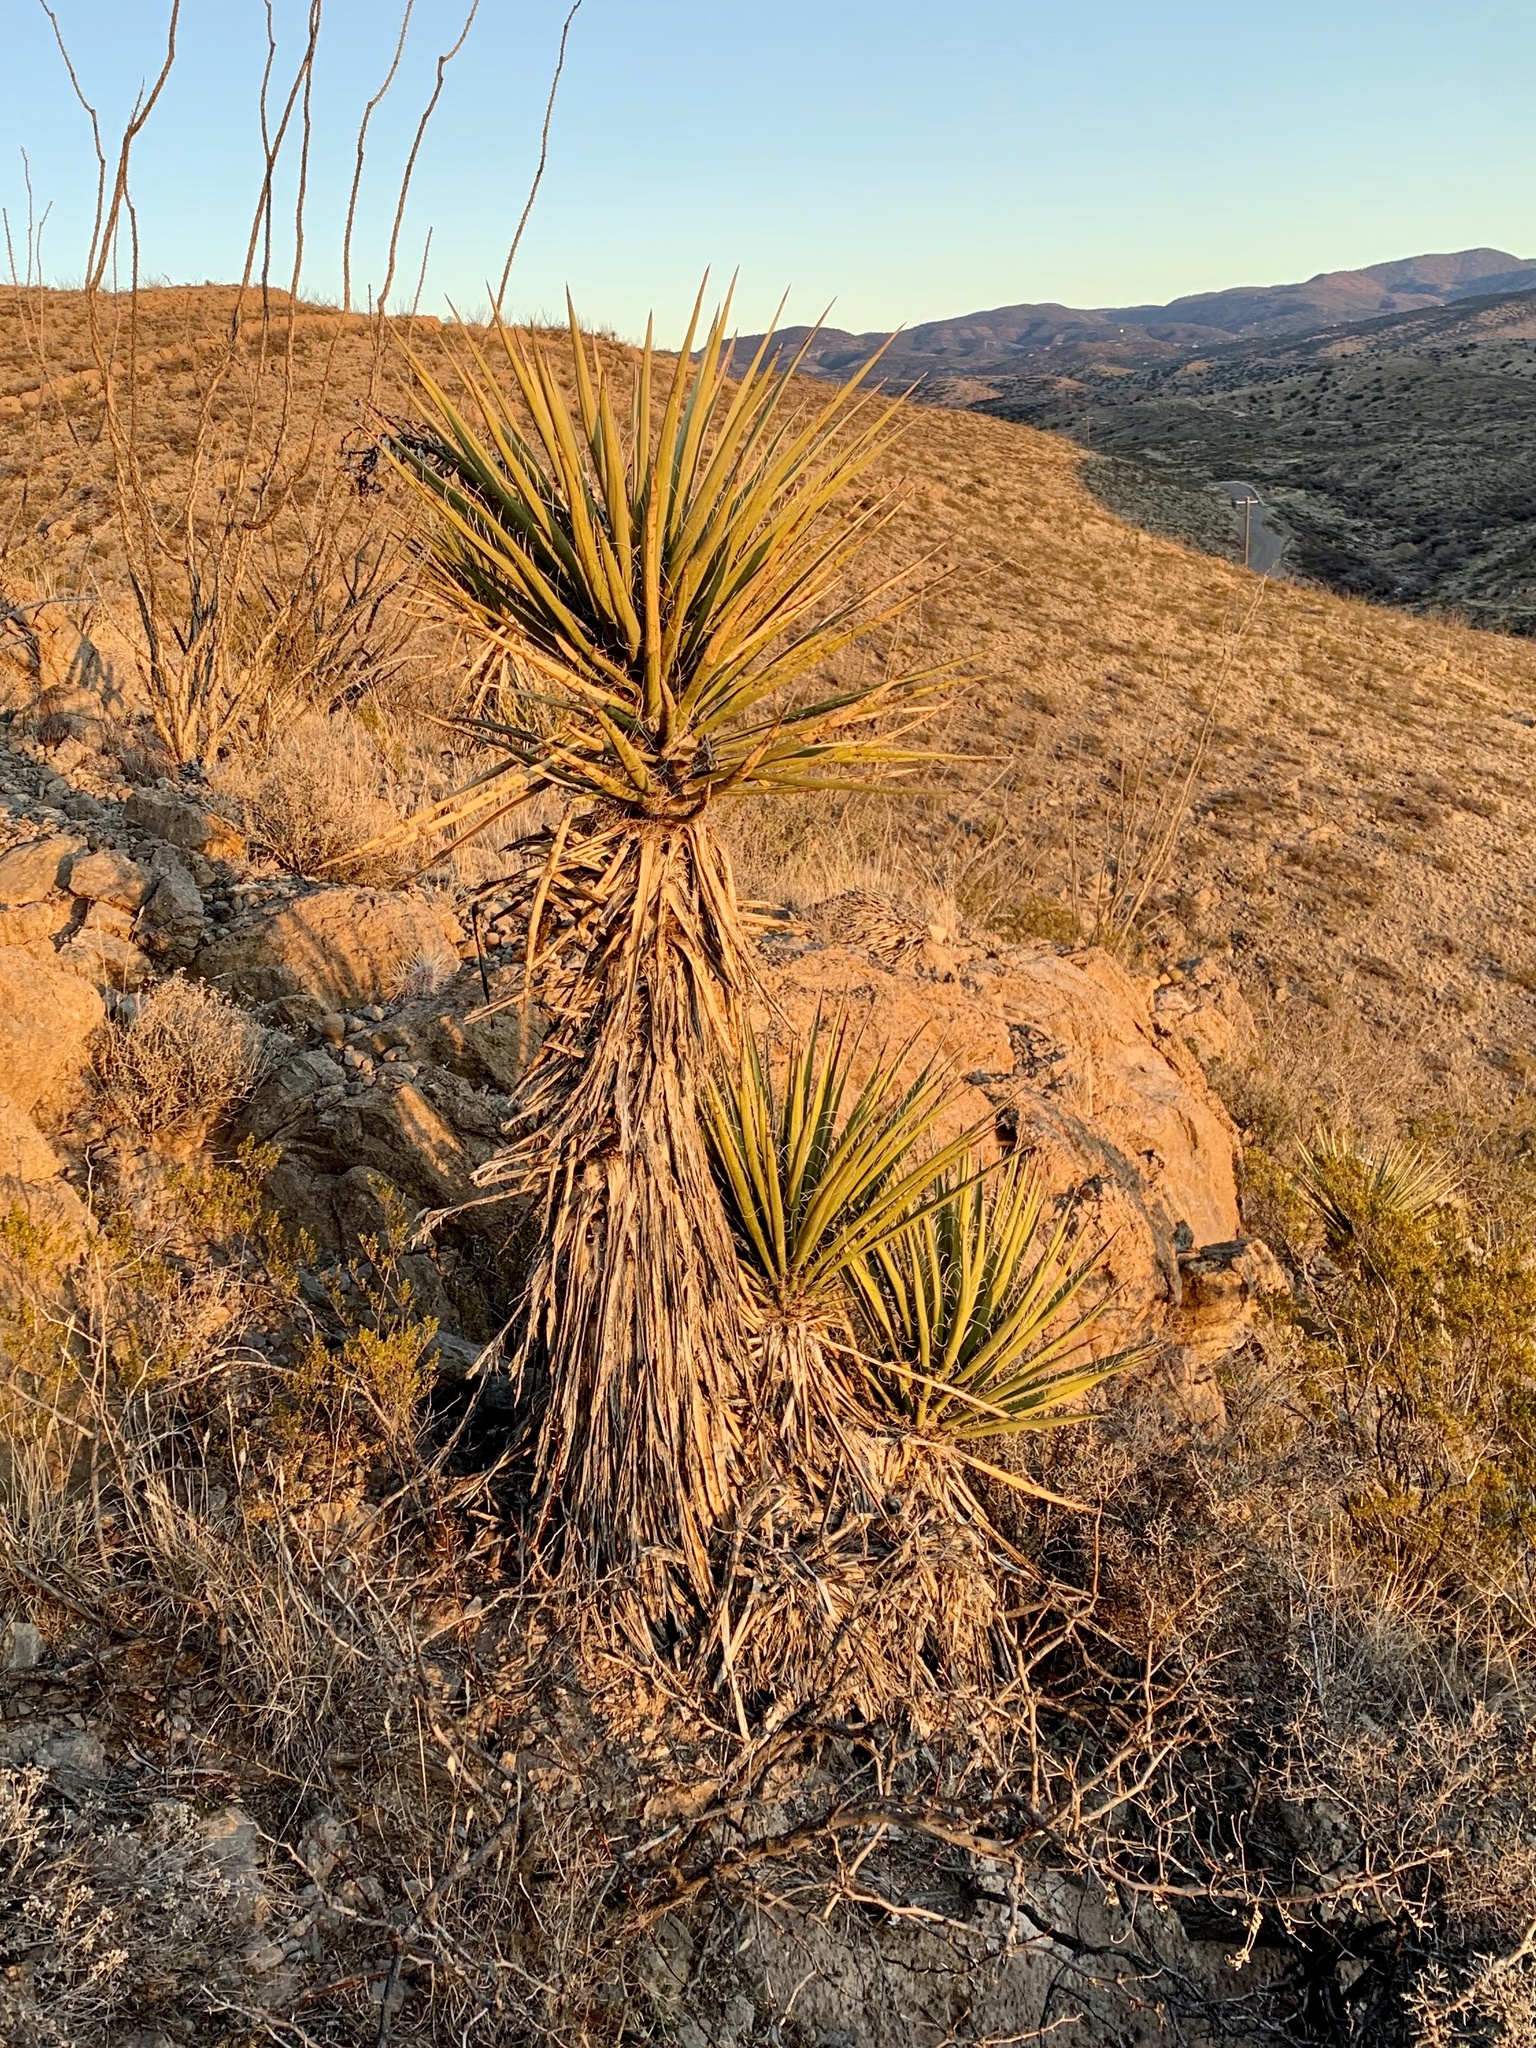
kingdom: Plantae
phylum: Tracheophyta
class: Liliopsida
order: Asparagales
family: Asparagaceae
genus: Yucca
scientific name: Yucca treculiana
